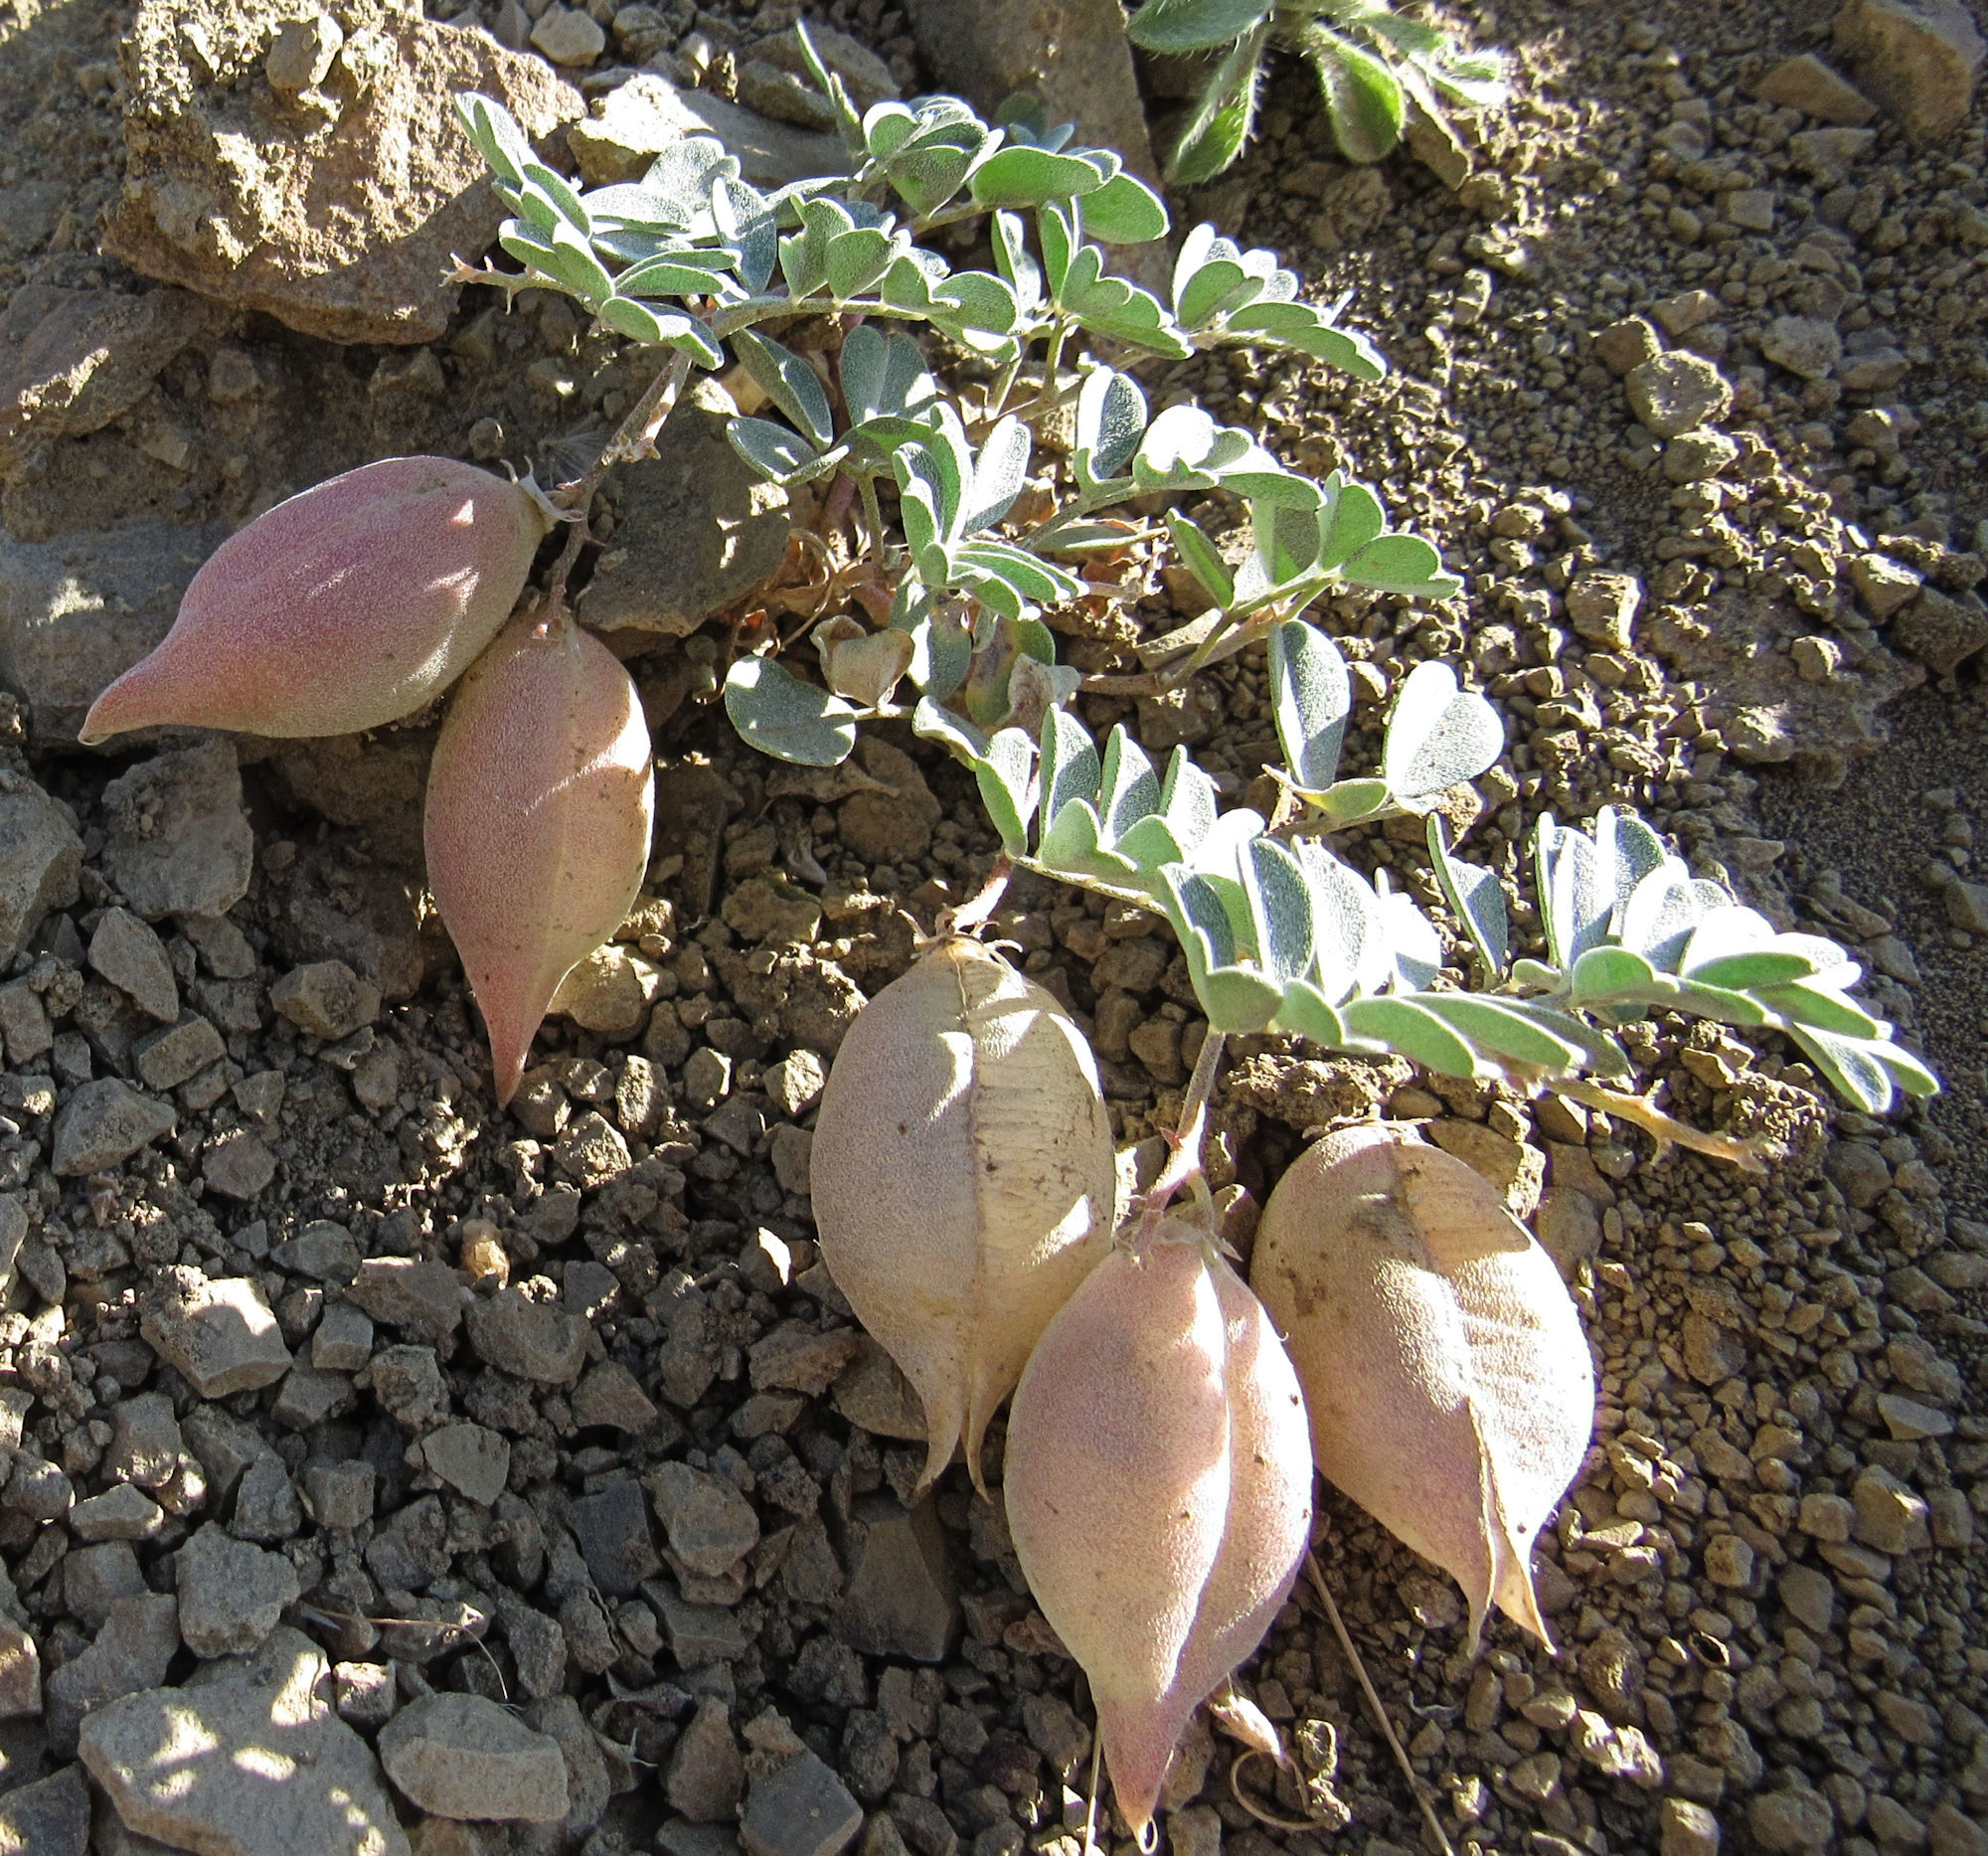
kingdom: Plantae
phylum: Tracheophyta
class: Magnoliopsida
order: Fabales
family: Fabaceae
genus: Astragalus
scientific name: Astragalus amblytropis
